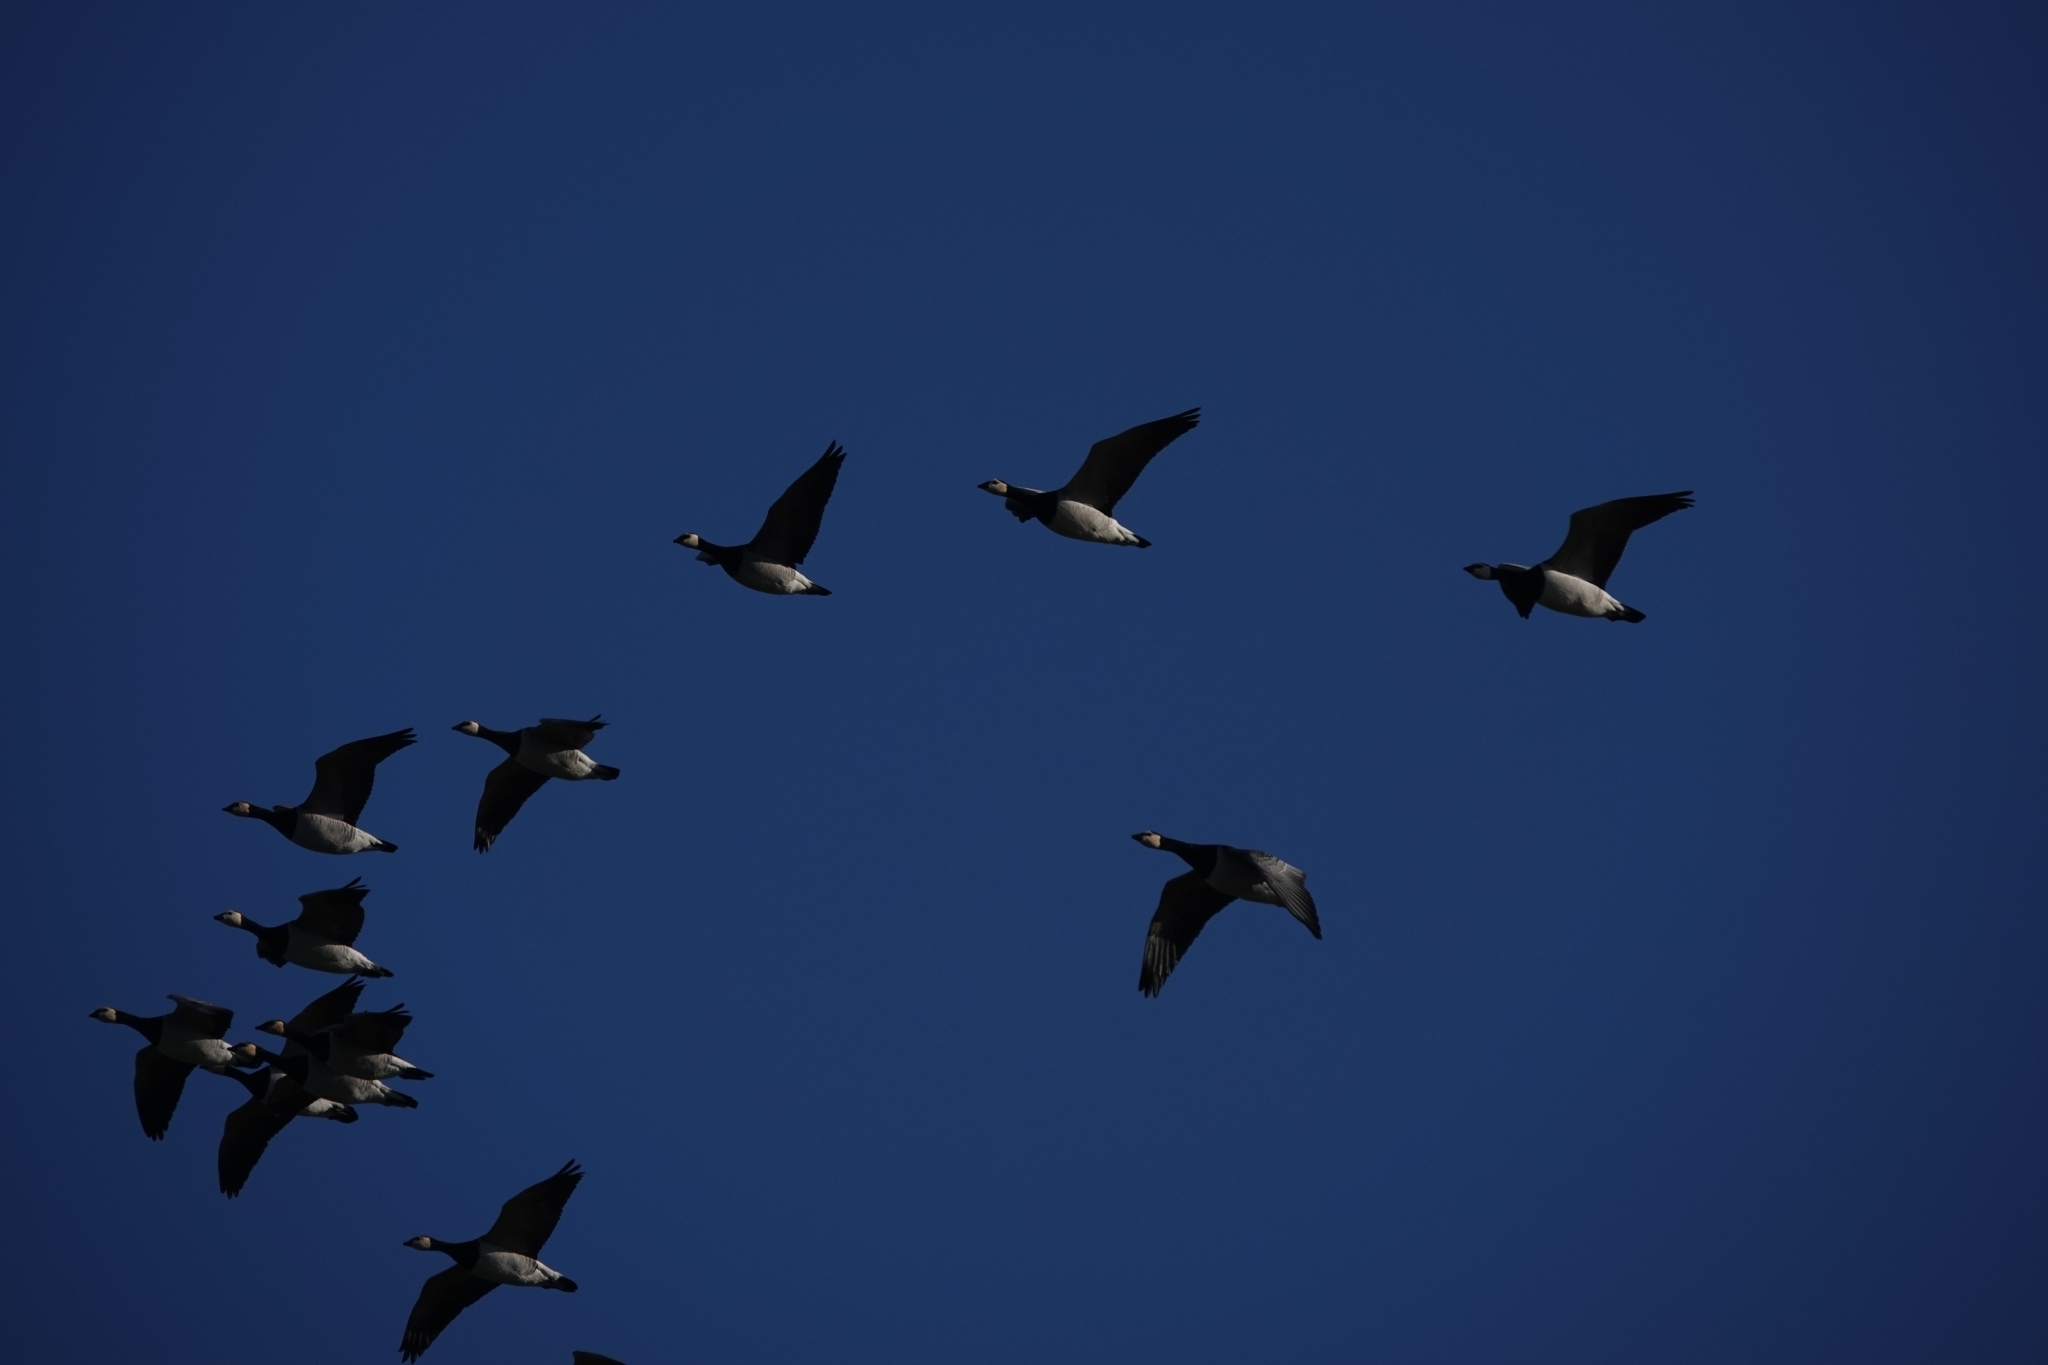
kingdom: Animalia
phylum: Chordata
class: Aves
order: Anseriformes
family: Anatidae
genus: Branta
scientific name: Branta leucopsis
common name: Barnacle goose
